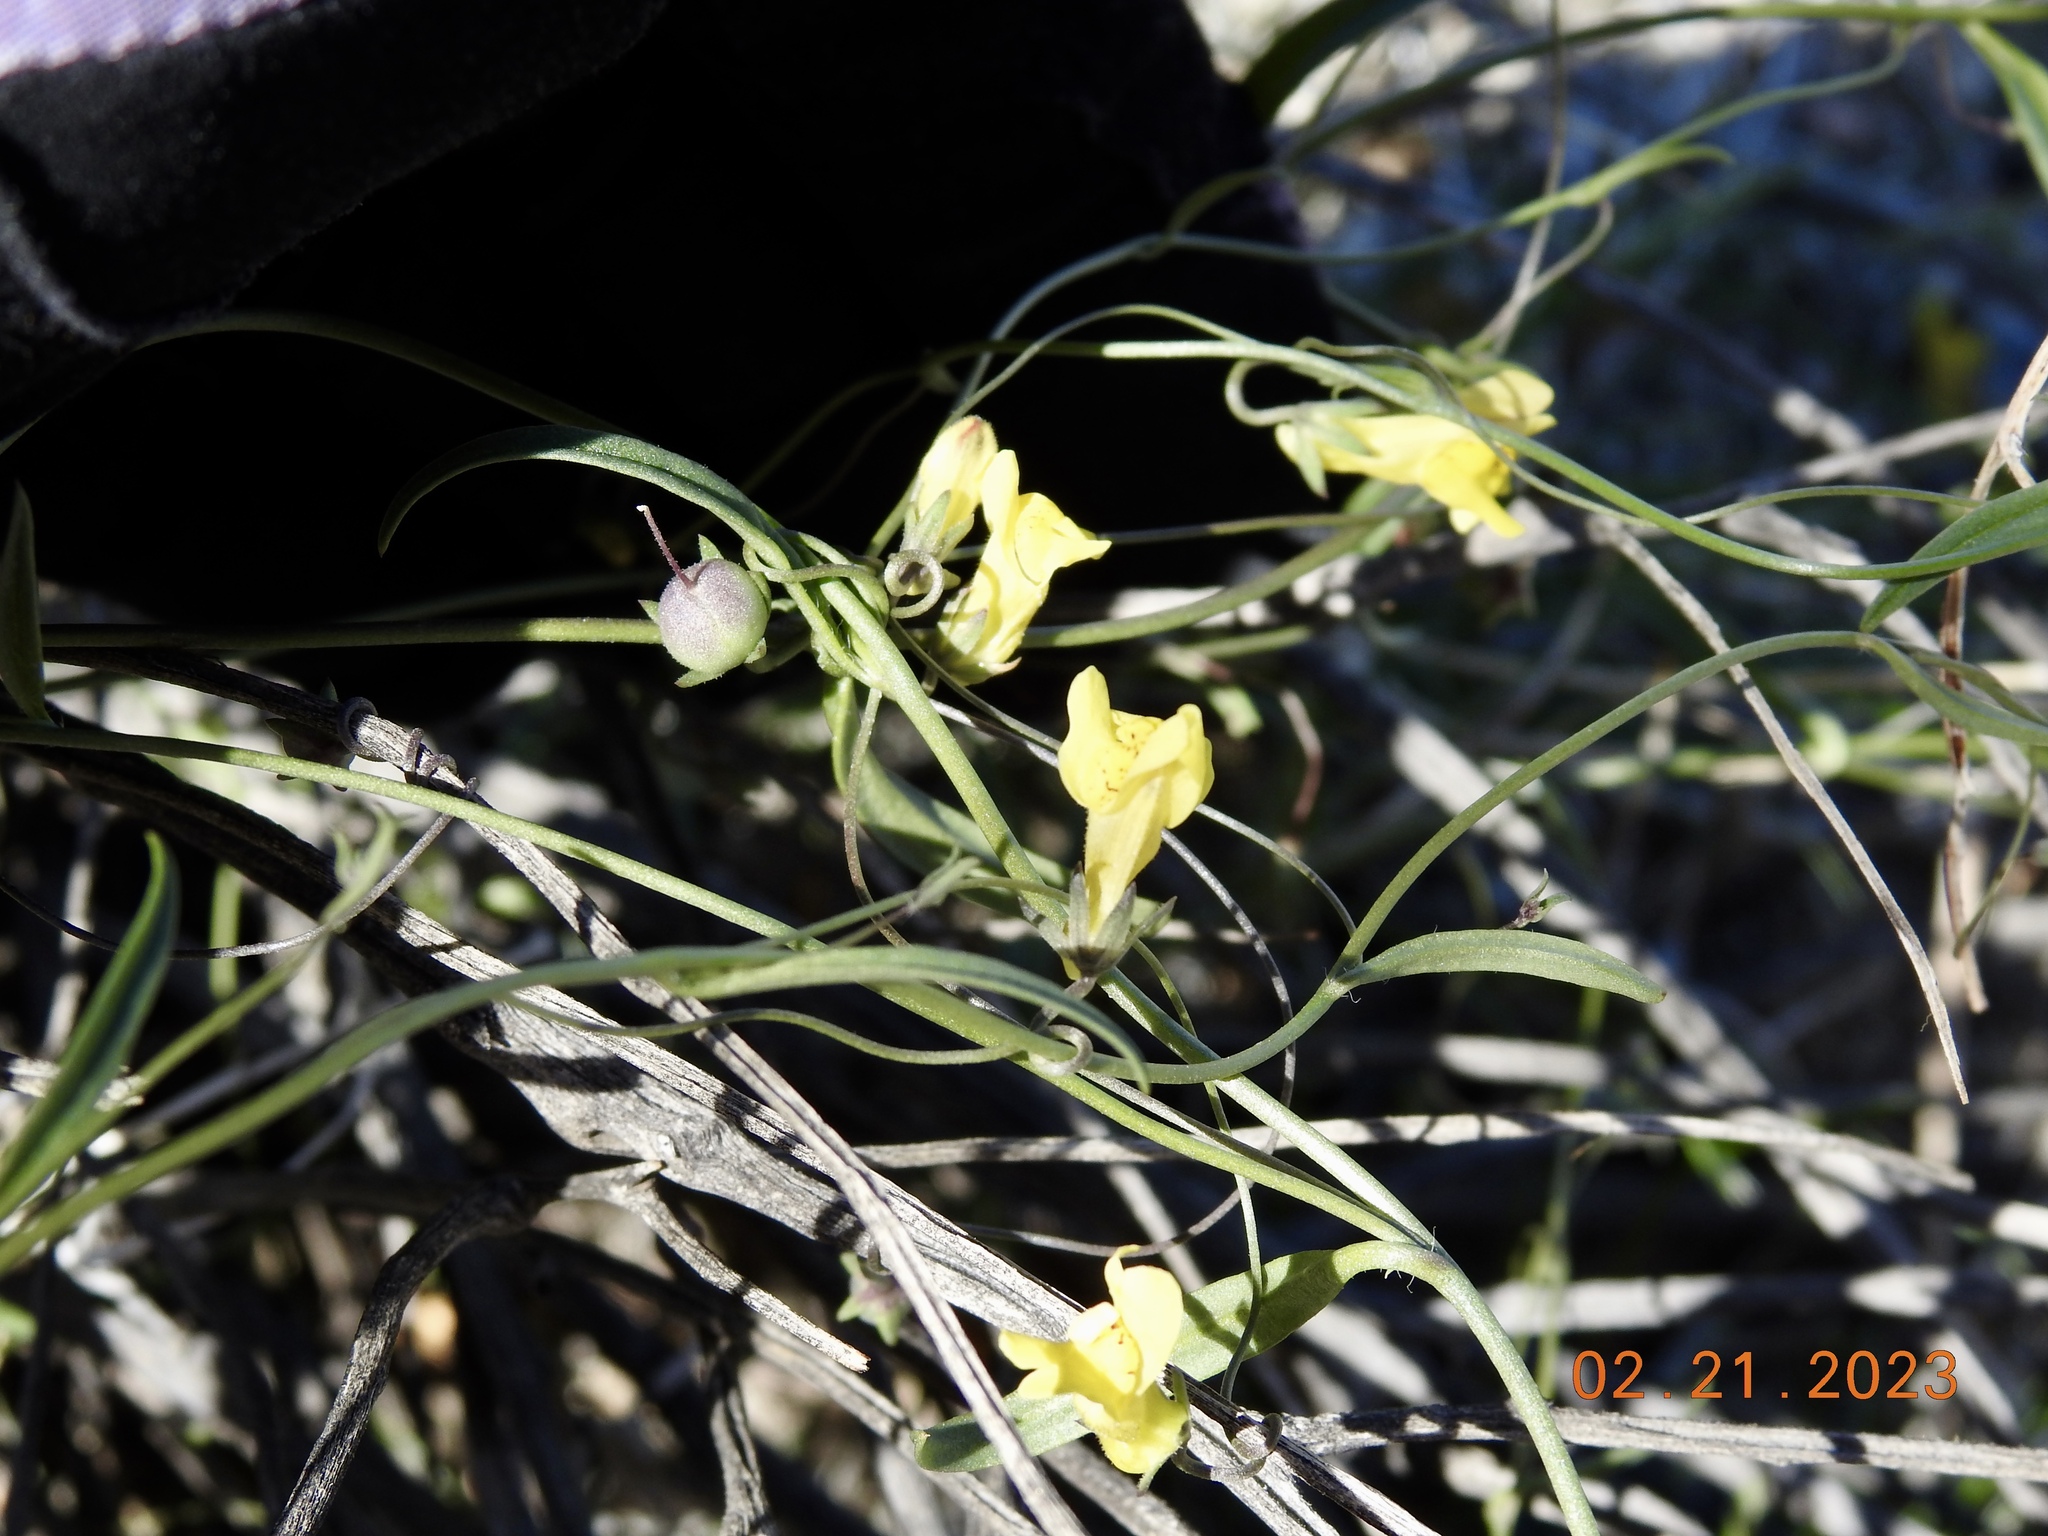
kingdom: Plantae
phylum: Tracheophyta
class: Magnoliopsida
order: Lamiales
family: Plantaginaceae
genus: Neogaerrhinum
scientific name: Neogaerrhinum filipes
